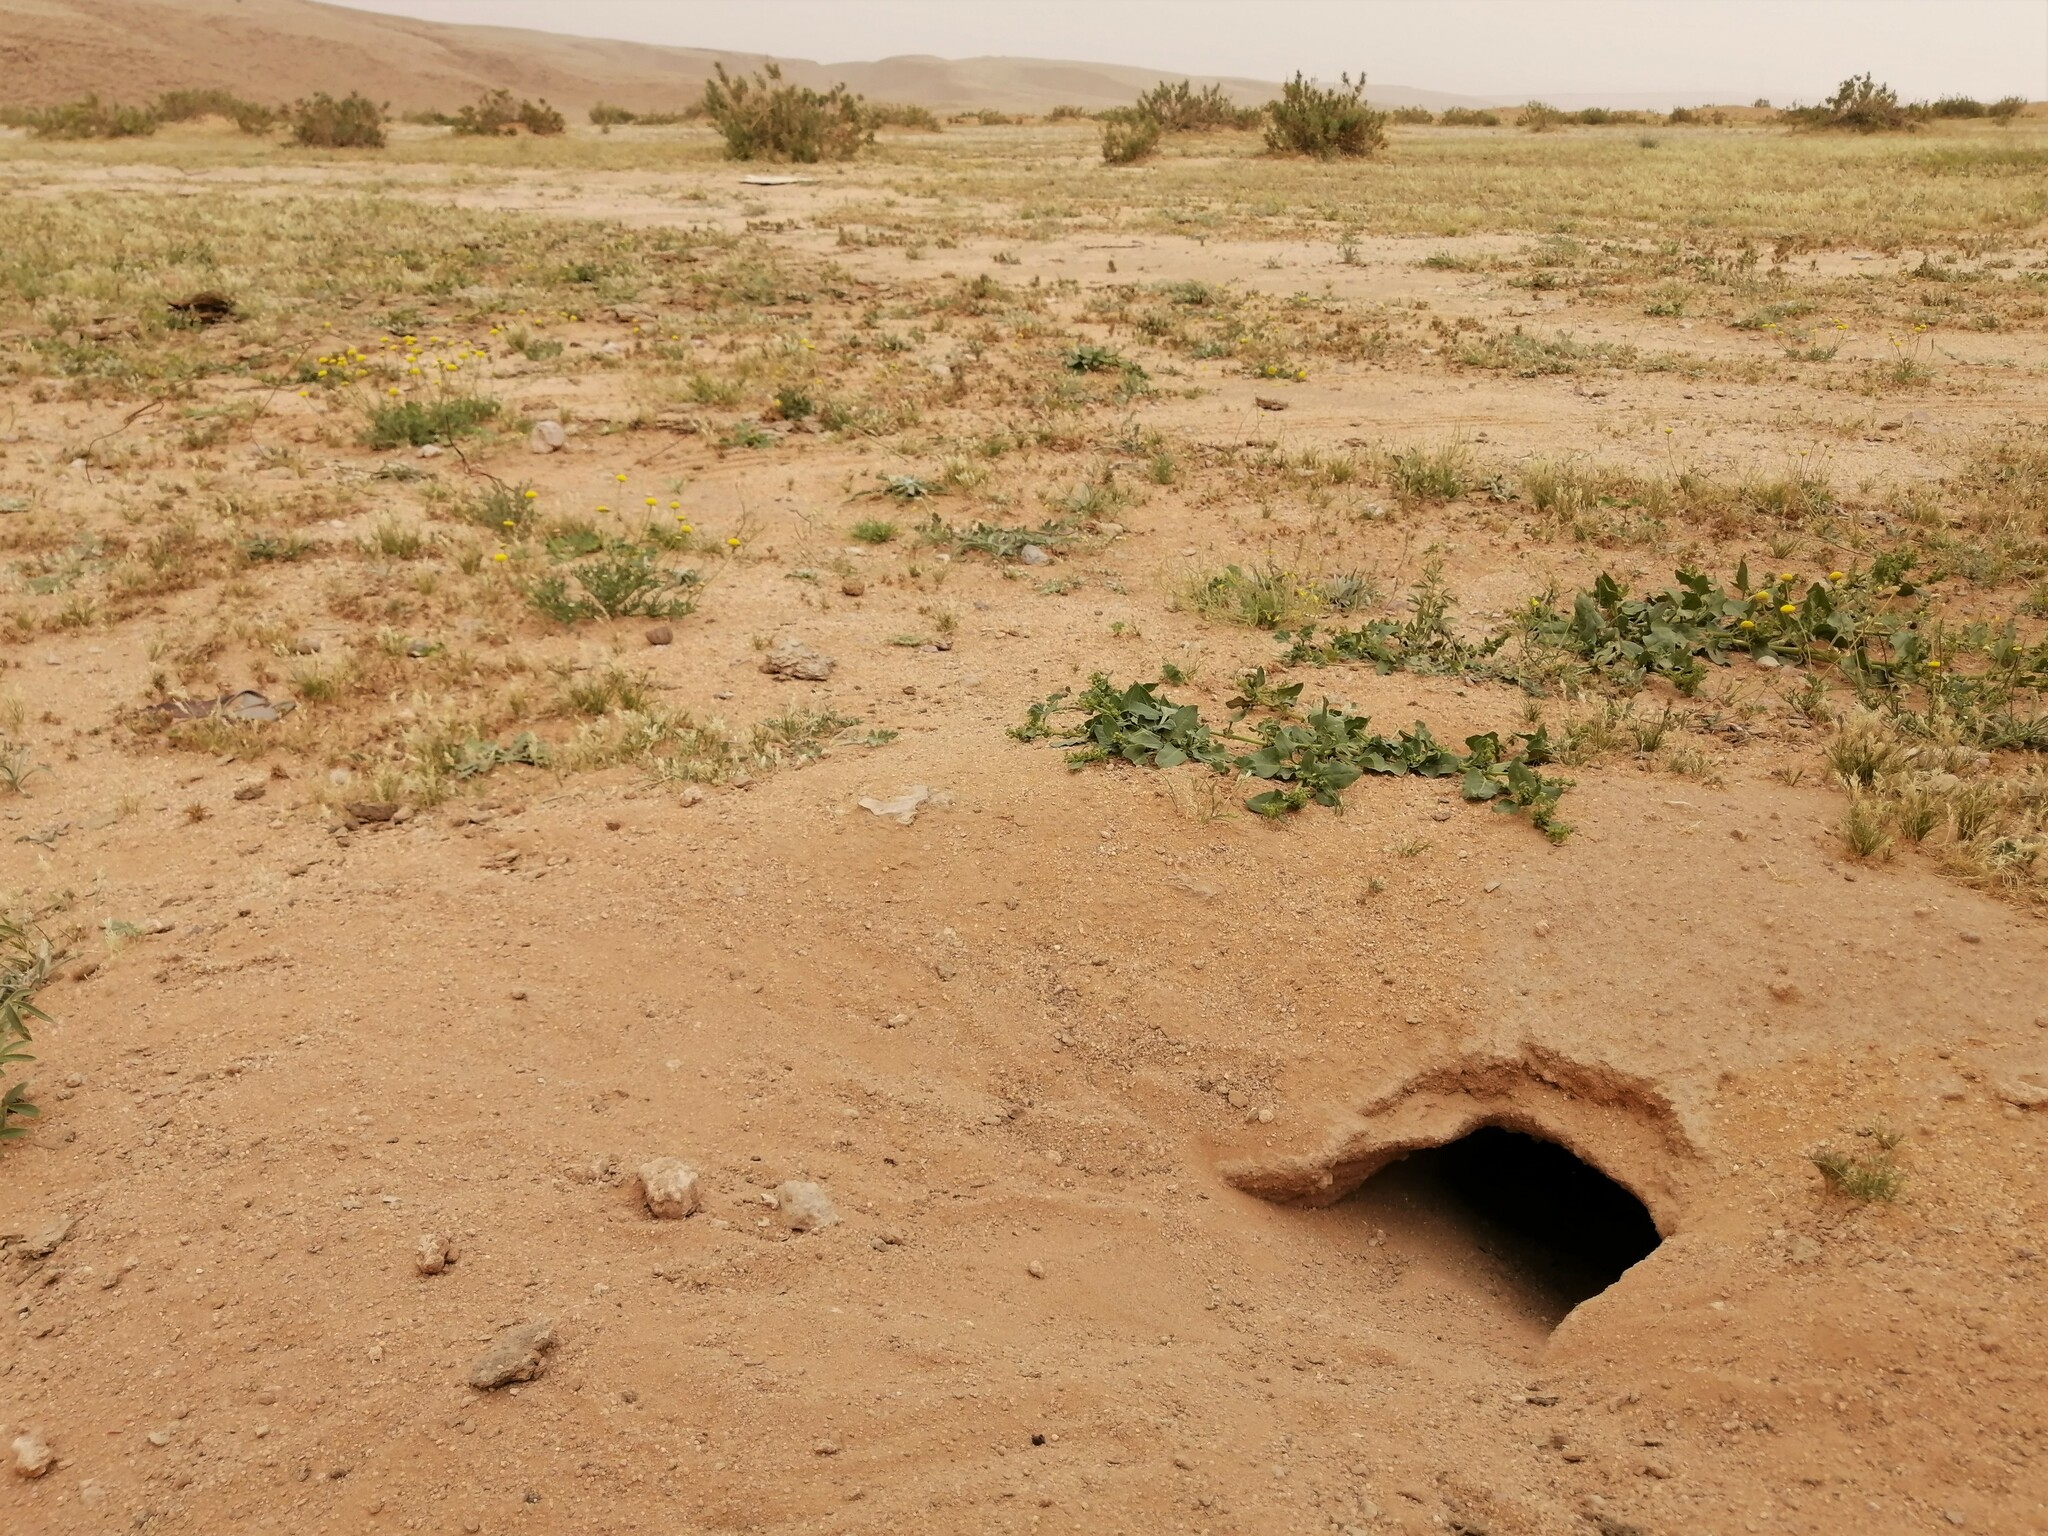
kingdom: Animalia
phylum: Chordata
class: Squamata
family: Agamidae
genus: Uromastyx
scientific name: Uromastyx aegyptia
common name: Egyptian mastigure
